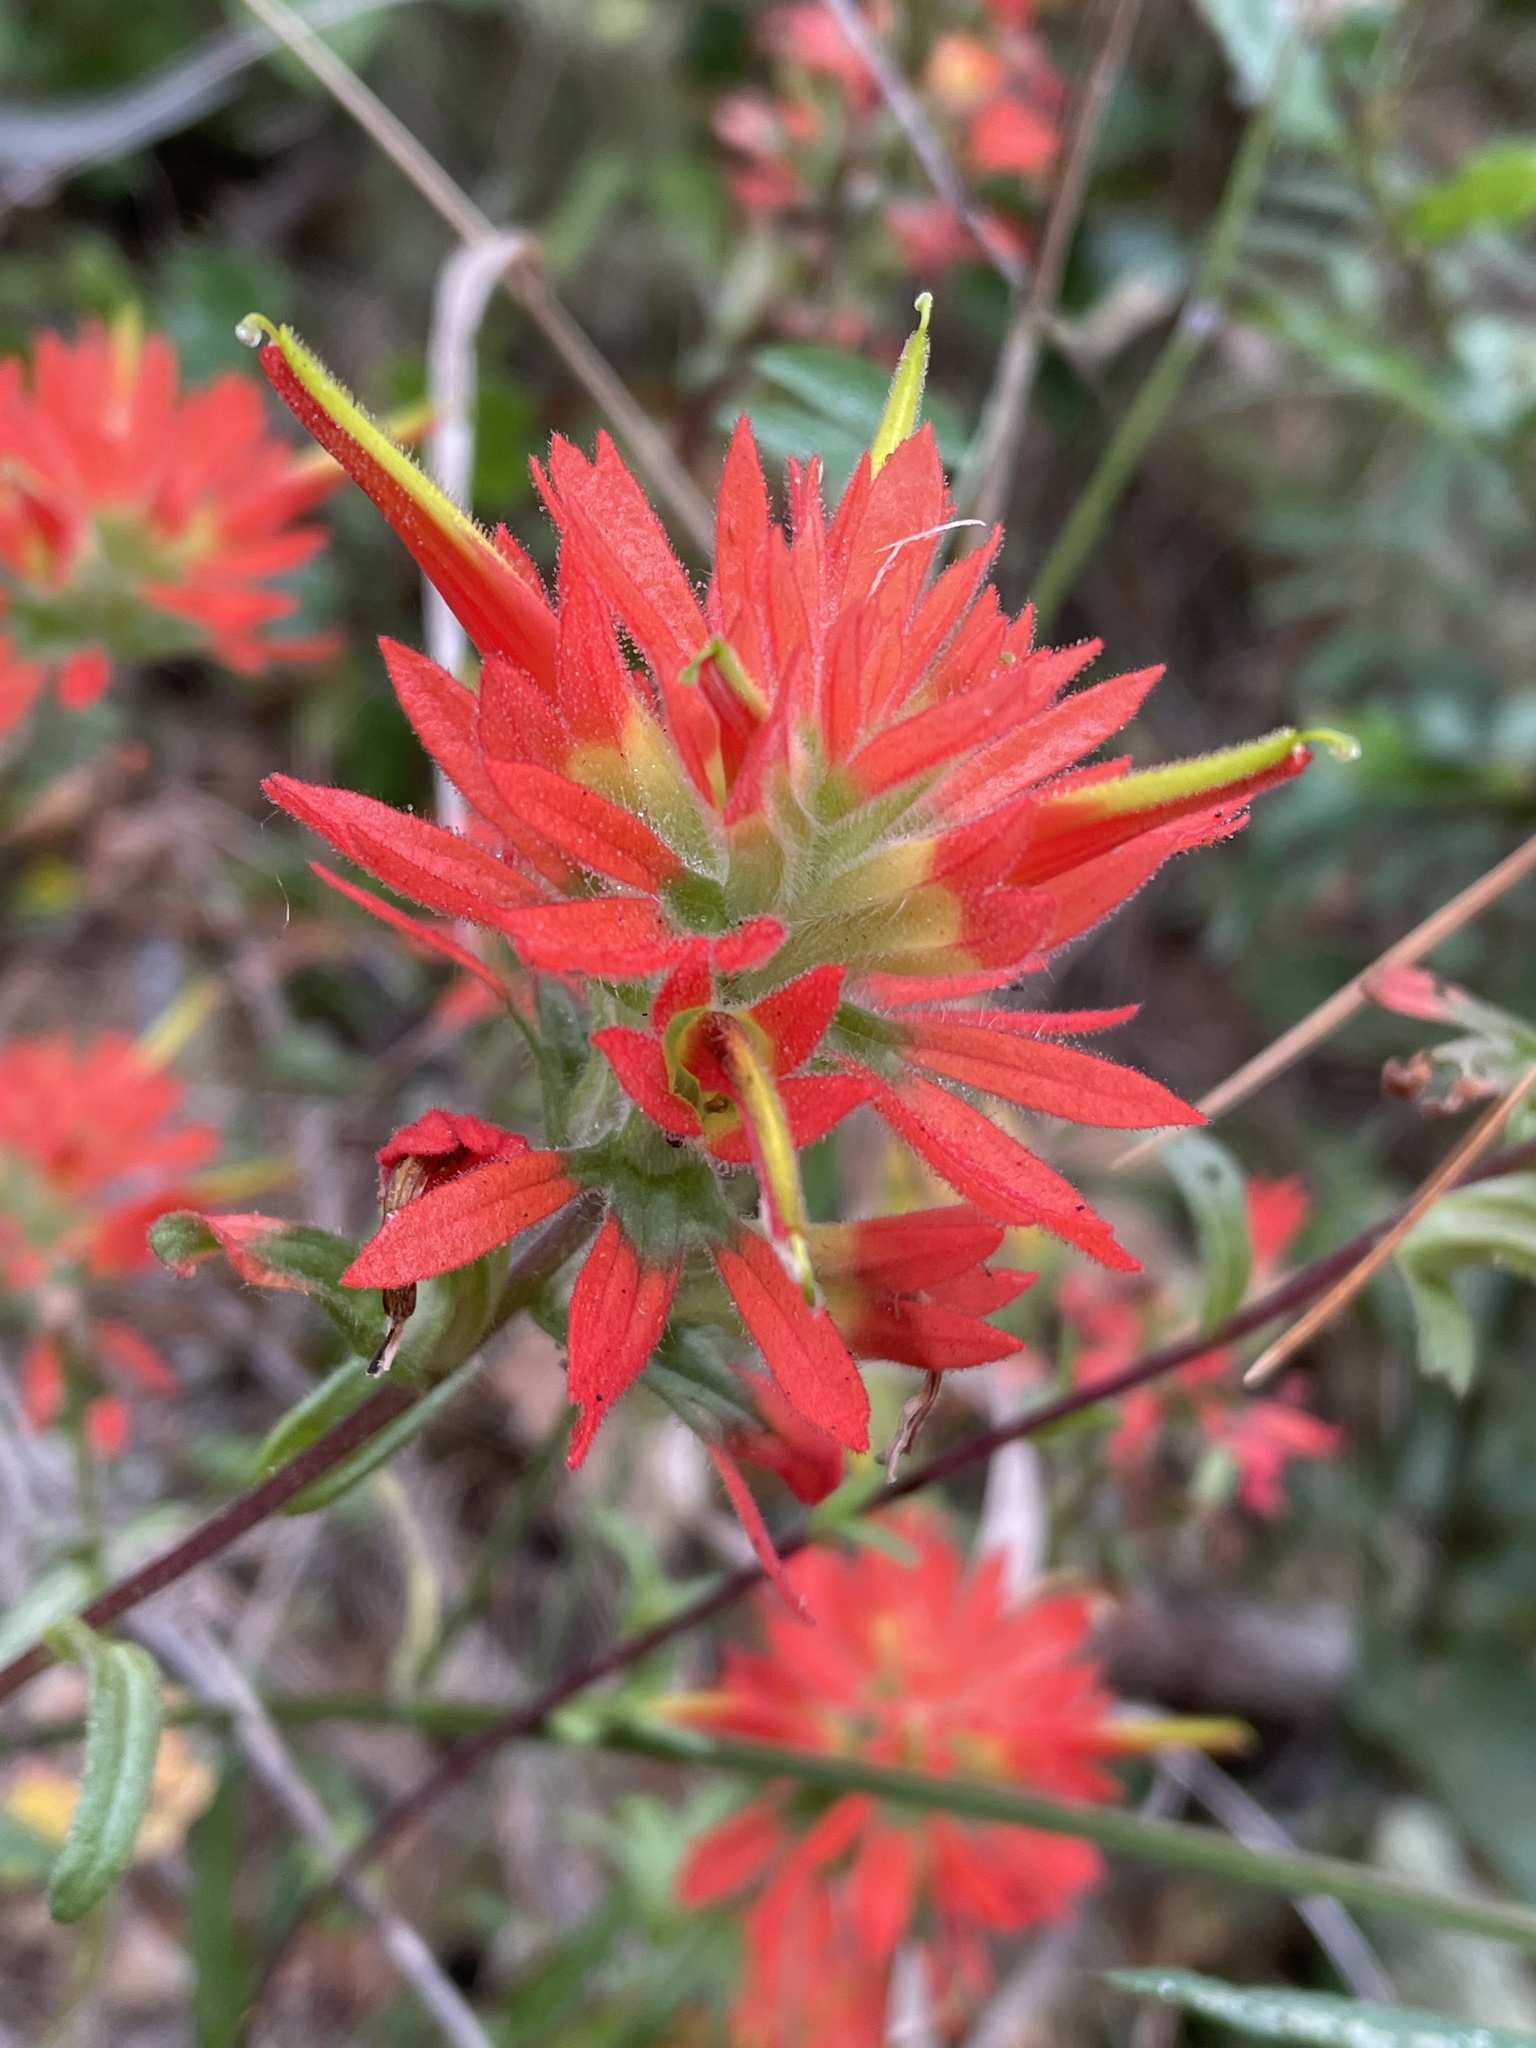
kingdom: Plantae
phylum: Tracheophyta
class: Magnoliopsida
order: Lamiales
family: Orobanchaceae
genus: Castilleja
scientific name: Castilleja affinis
